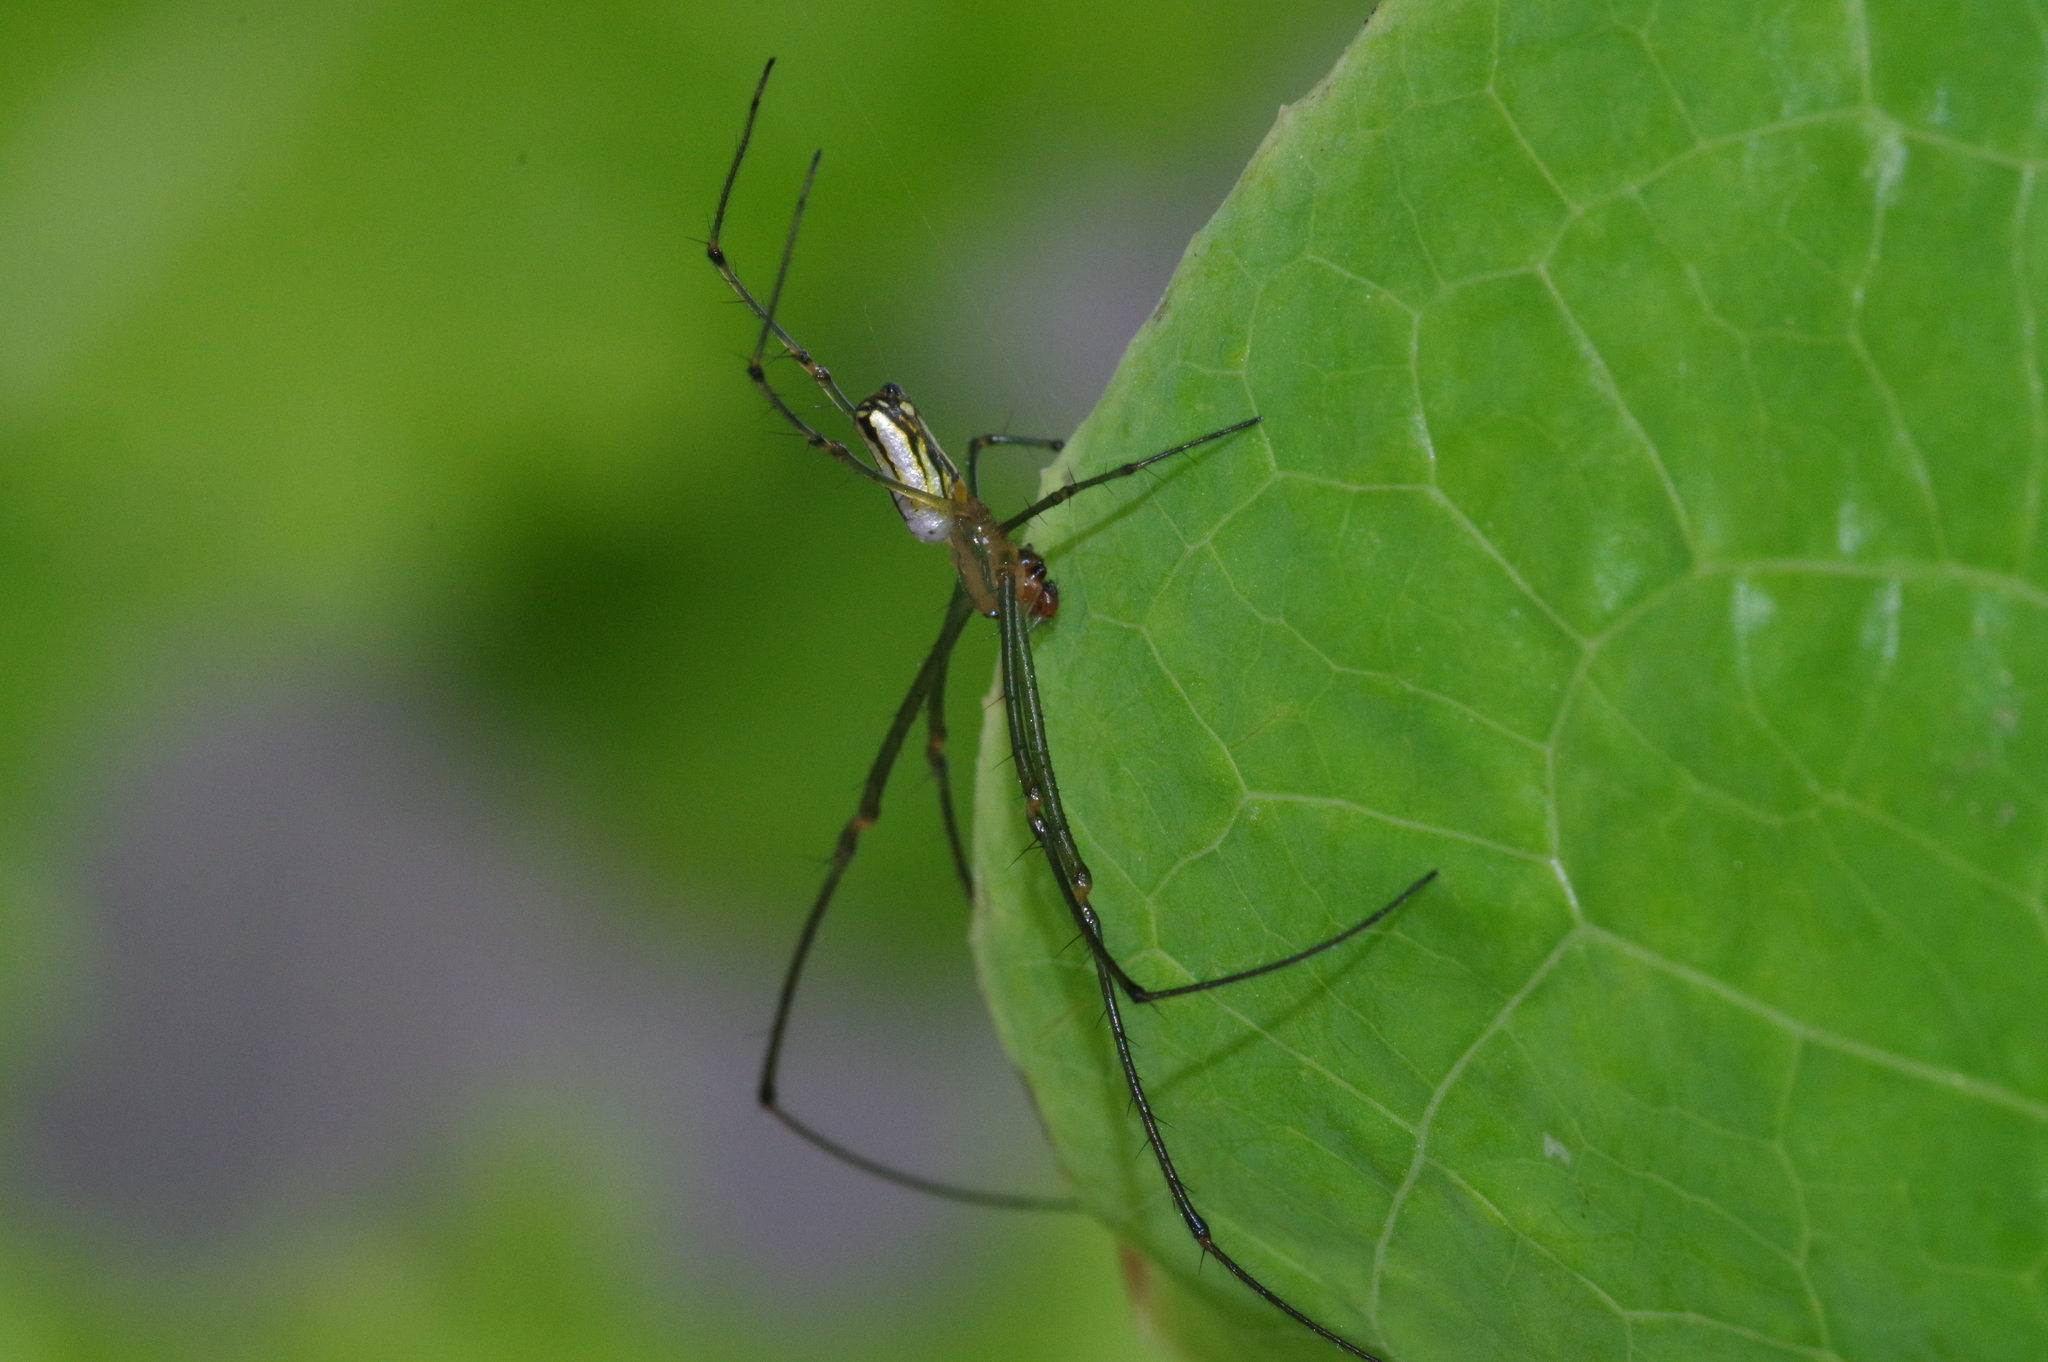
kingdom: Animalia
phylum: Arthropoda
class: Arachnida
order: Araneae
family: Tetragnathidae
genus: Leucauge
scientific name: Leucauge blanda
